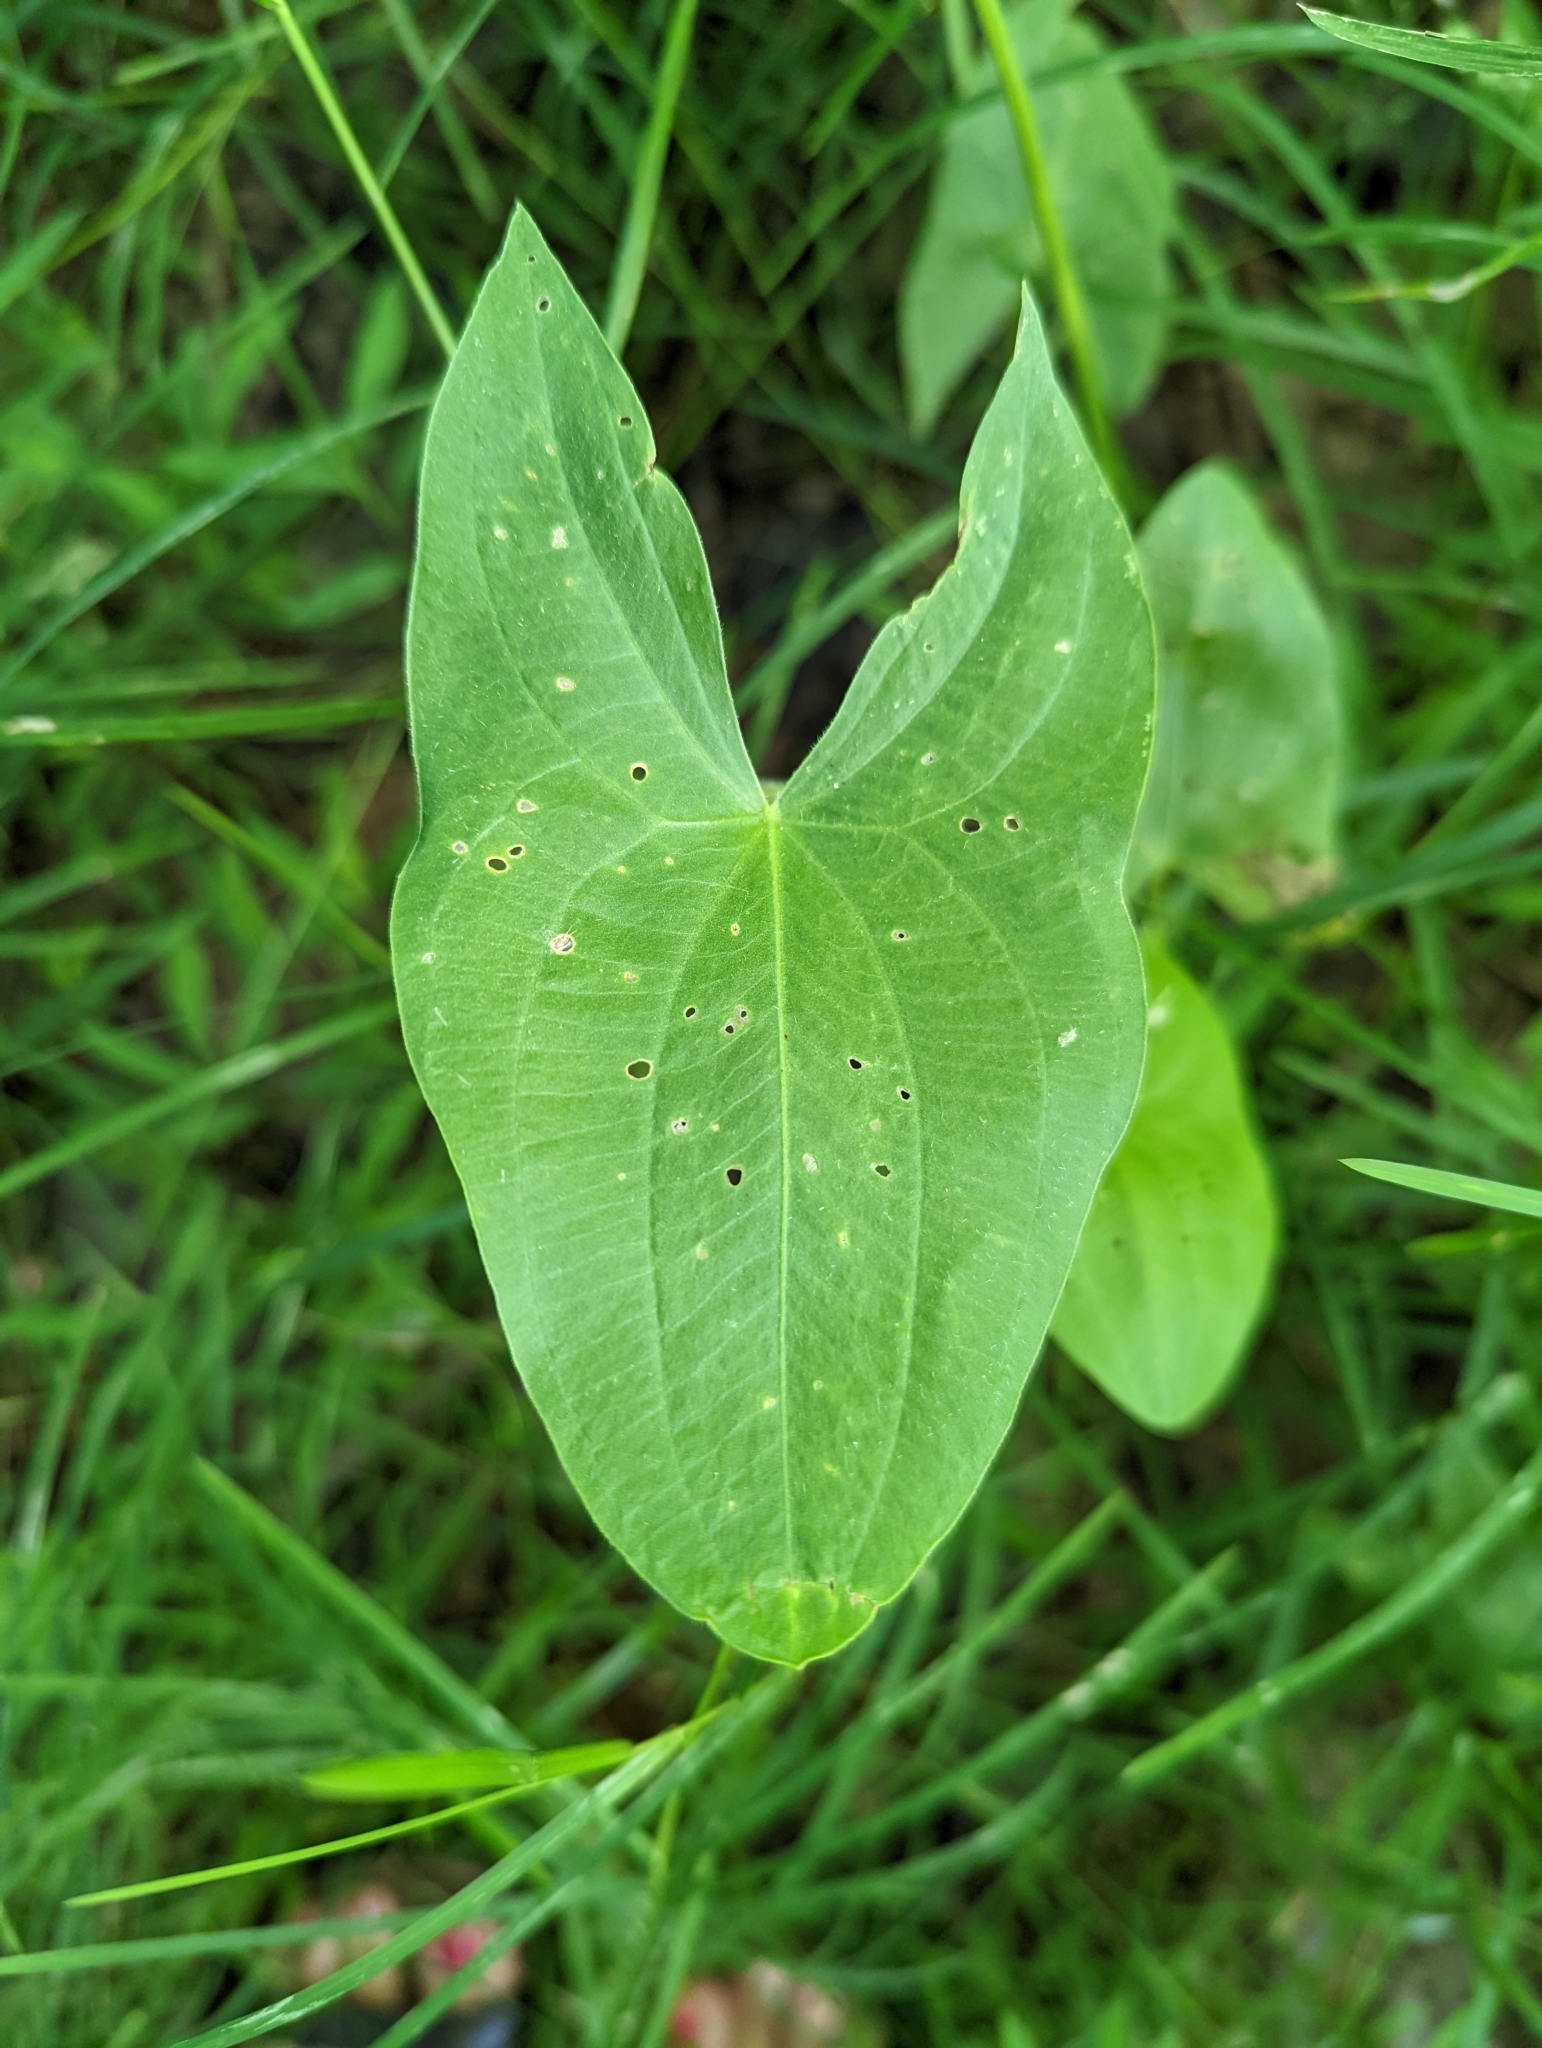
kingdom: Plantae
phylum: Tracheophyta
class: Liliopsida
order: Alismatales
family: Alismataceae
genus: Sagittaria
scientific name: Sagittaria latifolia
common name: Duck-potato
